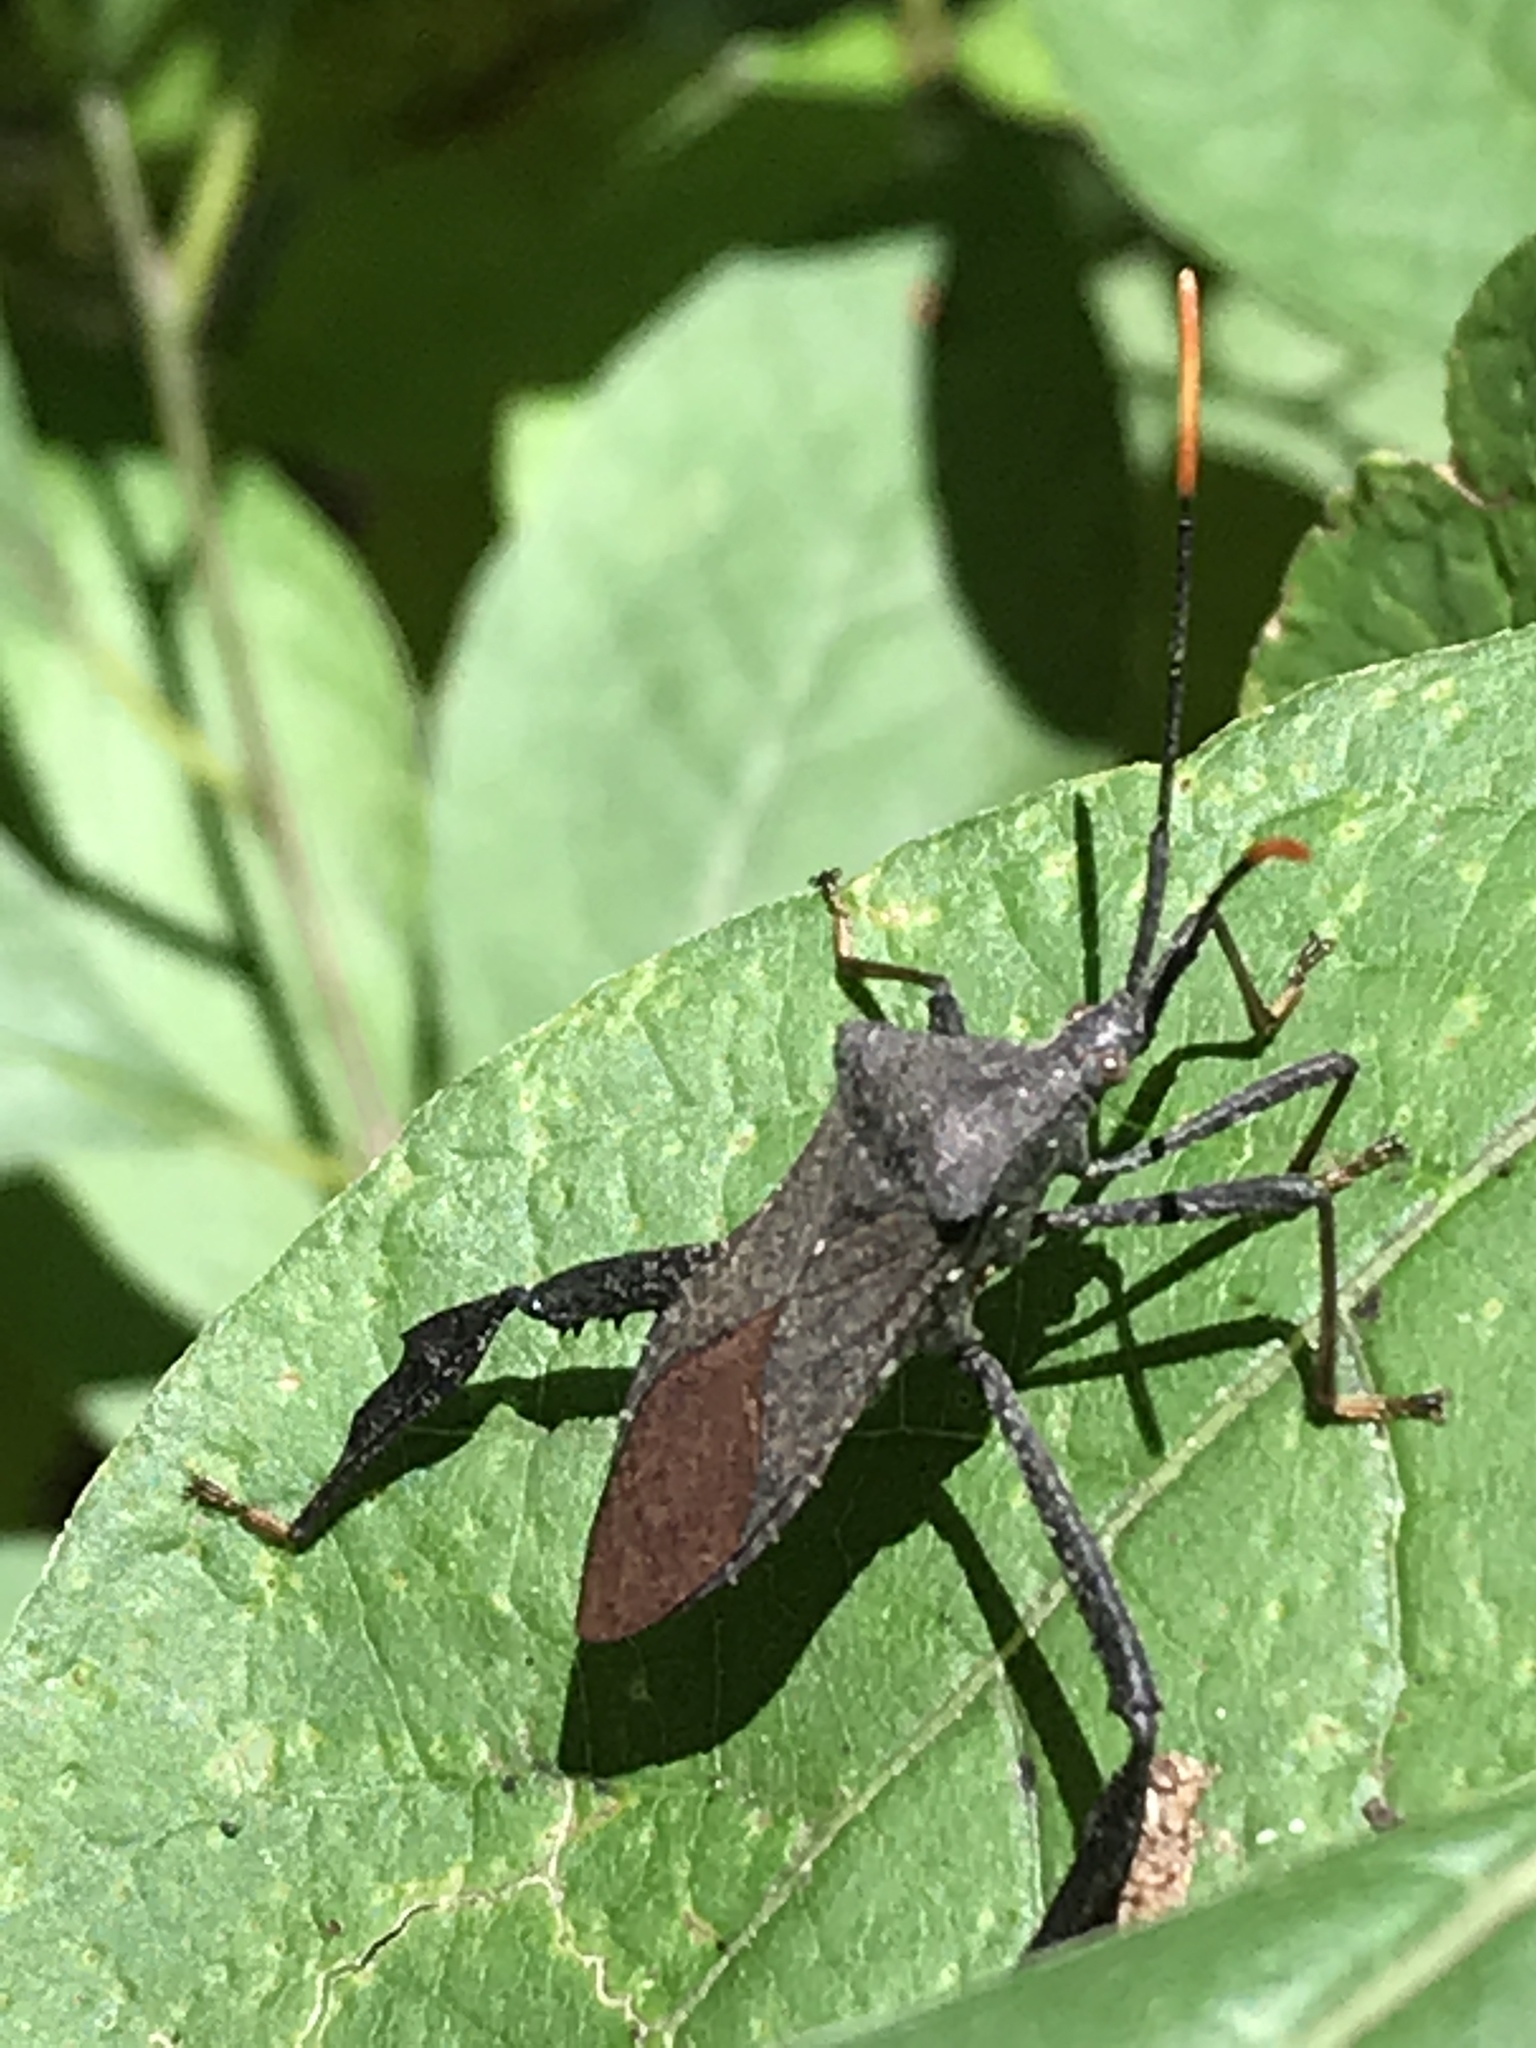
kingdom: Animalia
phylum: Arthropoda
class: Insecta
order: Hemiptera
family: Coreidae
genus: Acanthocephala
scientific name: Acanthocephala terminalis
